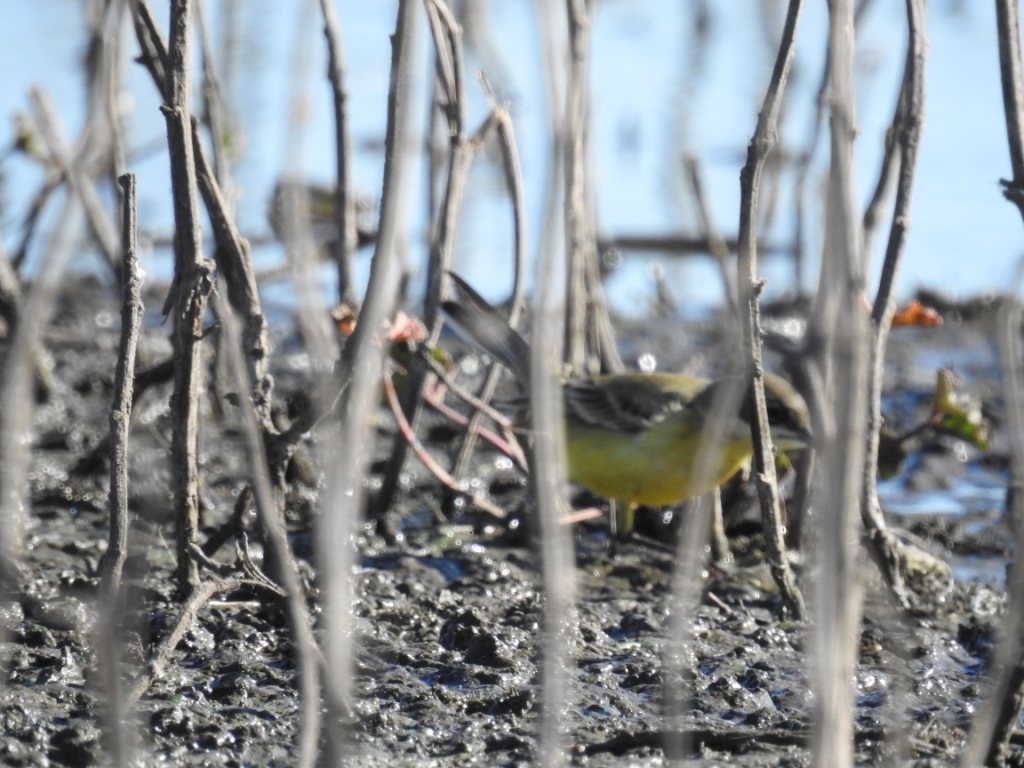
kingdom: Animalia
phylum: Chordata
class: Aves
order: Passeriformes
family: Motacillidae
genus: Motacilla
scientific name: Motacilla flava
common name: Western yellow wagtail
